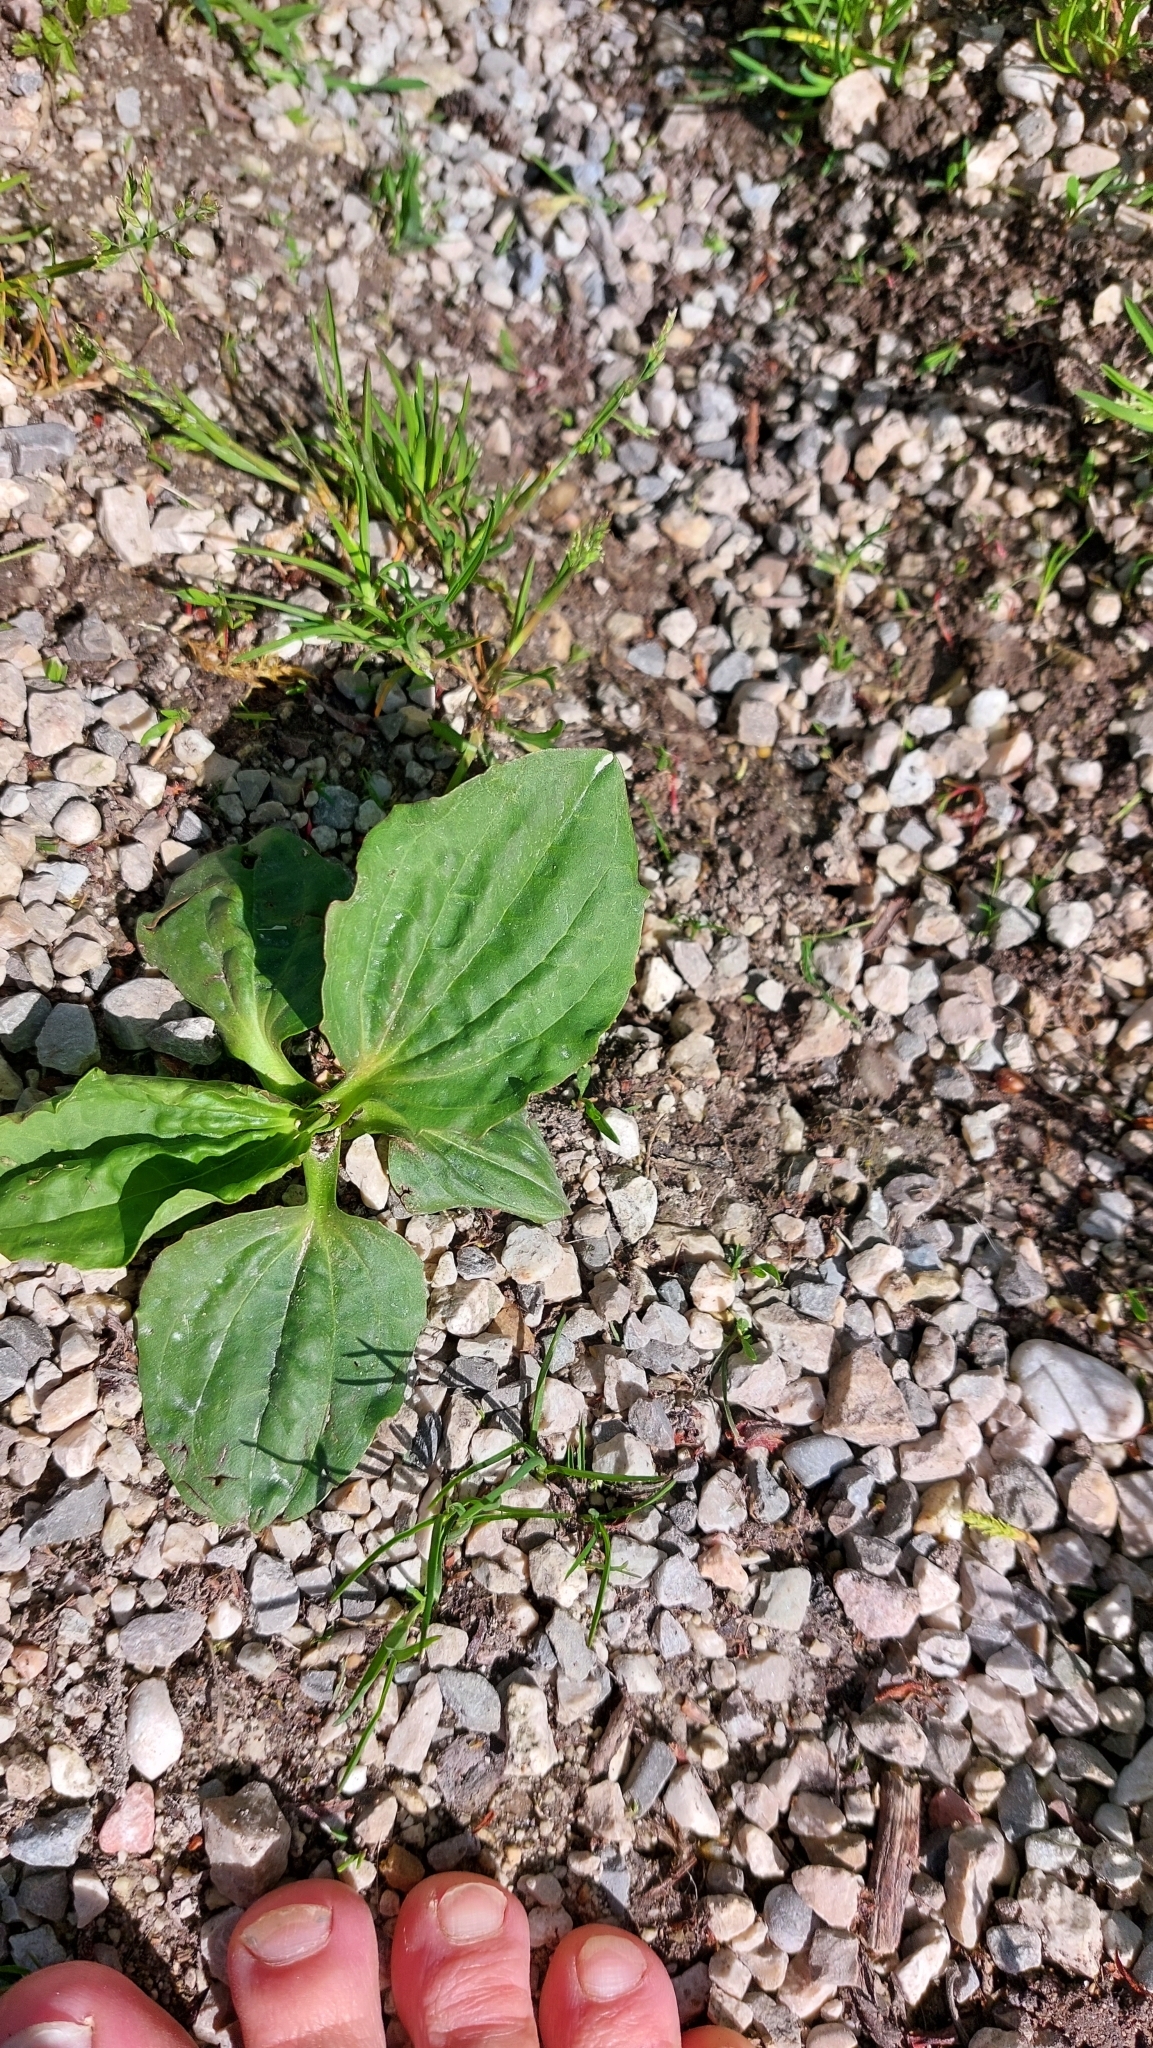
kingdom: Plantae
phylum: Tracheophyta
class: Magnoliopsida
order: Lamiales
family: Plantaginaceae
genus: Plantago
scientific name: Plantago major
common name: Common plantain
